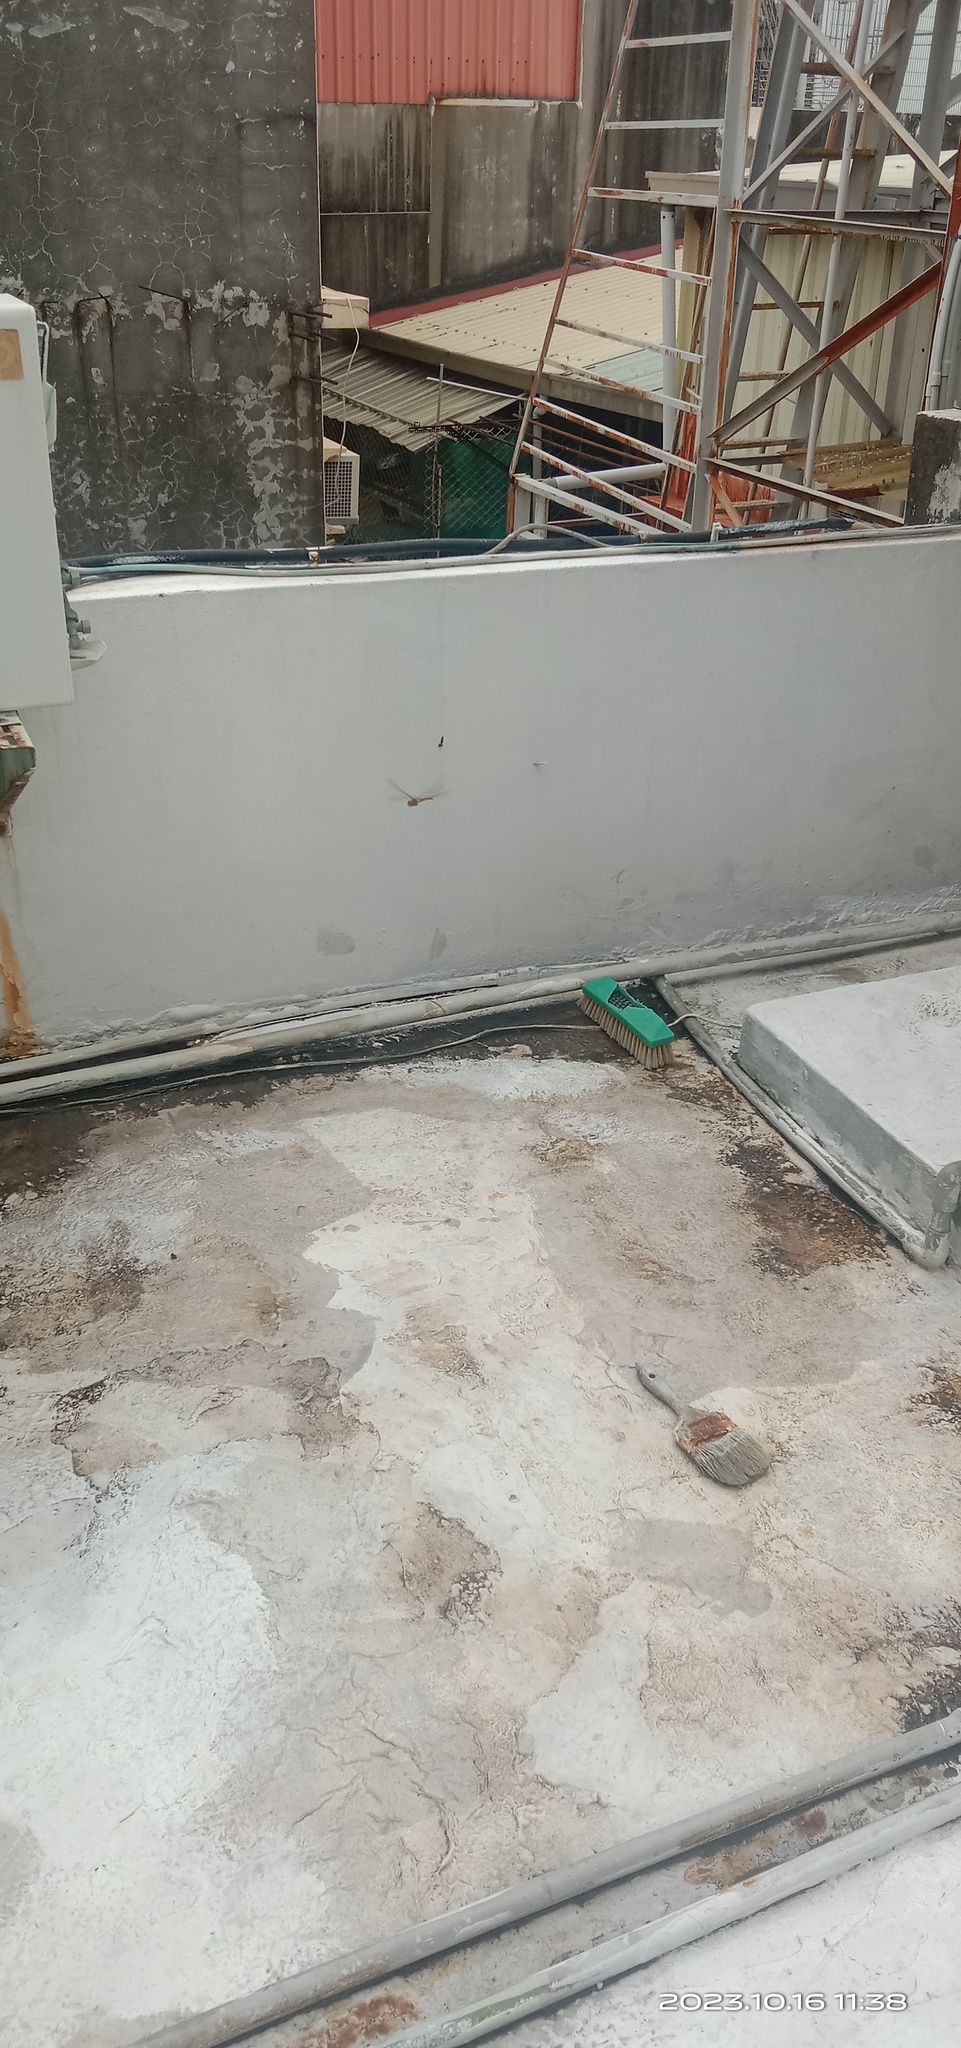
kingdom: Animalia
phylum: Arthropoda
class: Insecta
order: Odonata
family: Libellulidae
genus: Pantala
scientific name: Pantala flavescens
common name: Wandering glider
